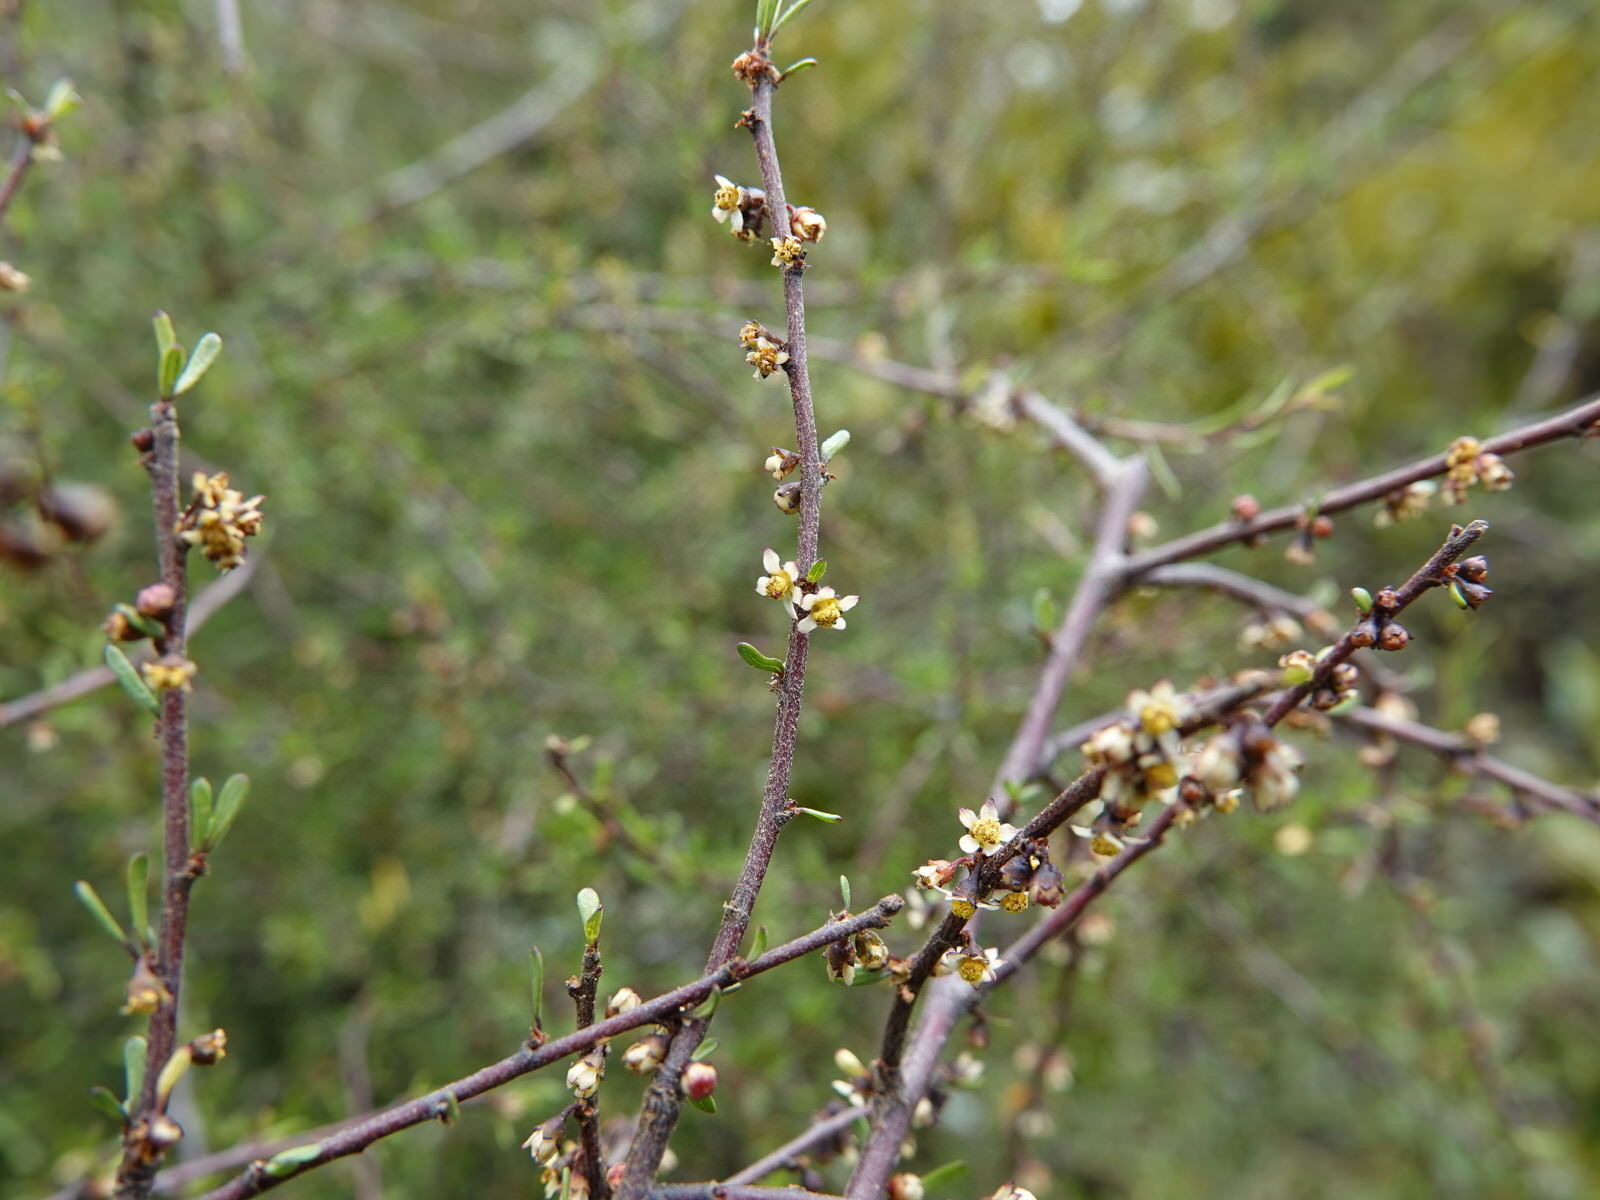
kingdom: Plantae
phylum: Tracheophyta
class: Magnoliopsida
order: Malvales
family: Malvaceae
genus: Plagianthus
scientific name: Plagianthus divaricatus
